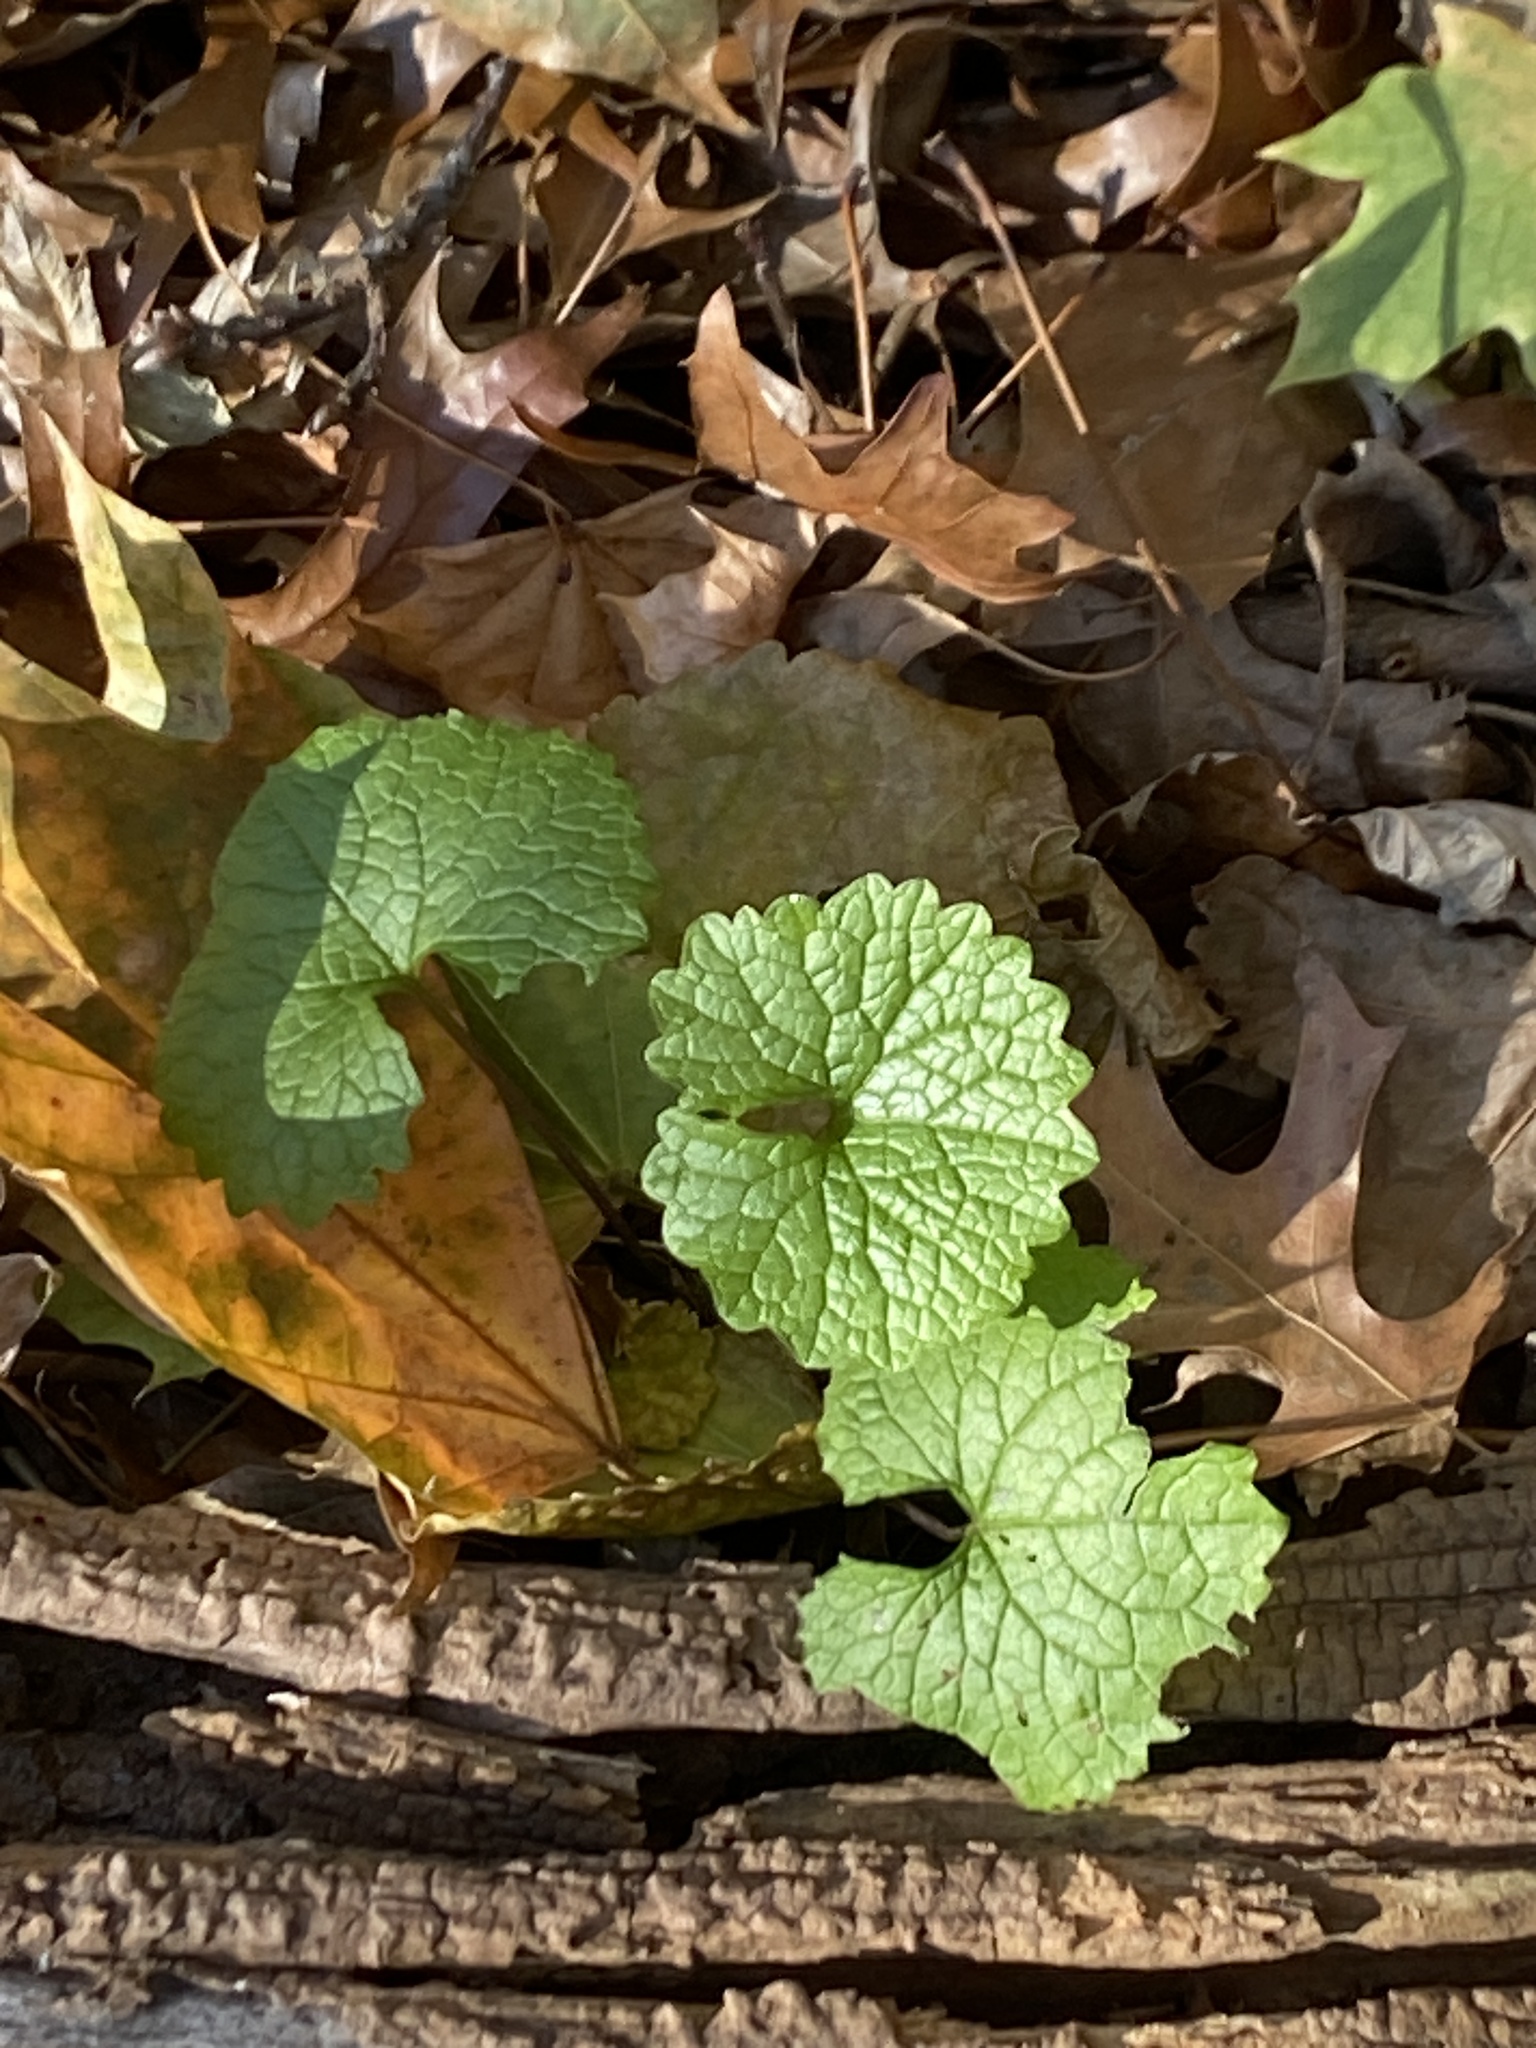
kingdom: Plantae
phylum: Tracheophyta
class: Magnoliopsida
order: Brassicales
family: Brassicaceae
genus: Alliaria
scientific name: Alliaria petiolata
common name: Garlic mustard
